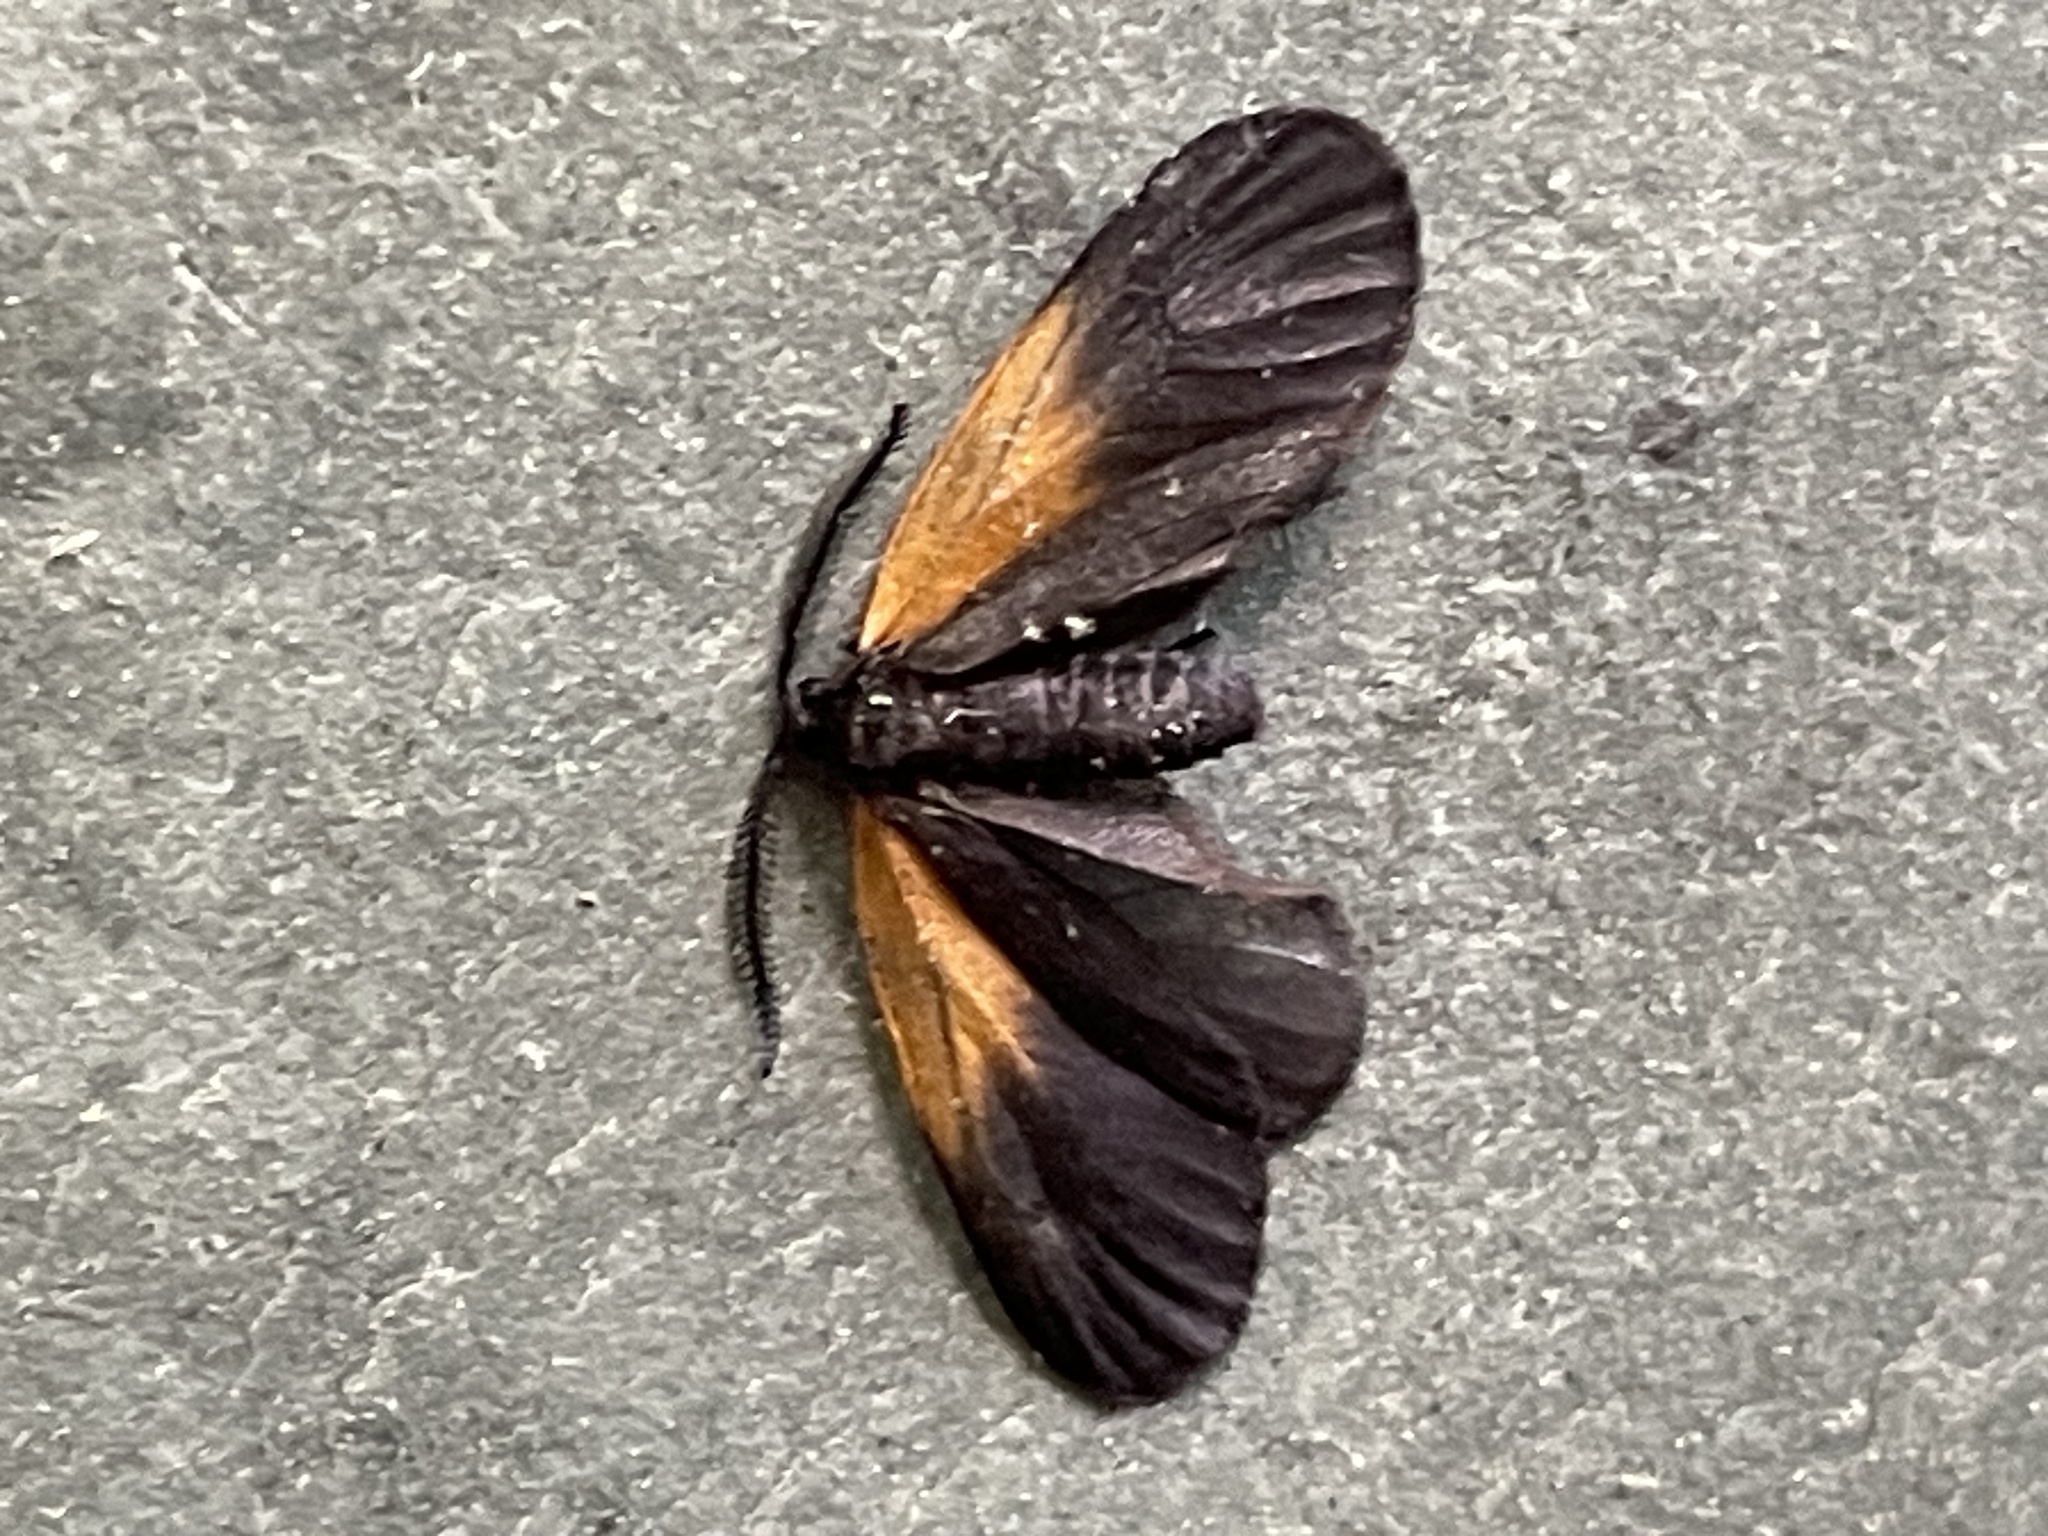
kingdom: Animalia
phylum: Arthropoda
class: Insecta
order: Lepidoptera
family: Zygaenidae
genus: Malthaca
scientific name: Malthaca dimidiata
